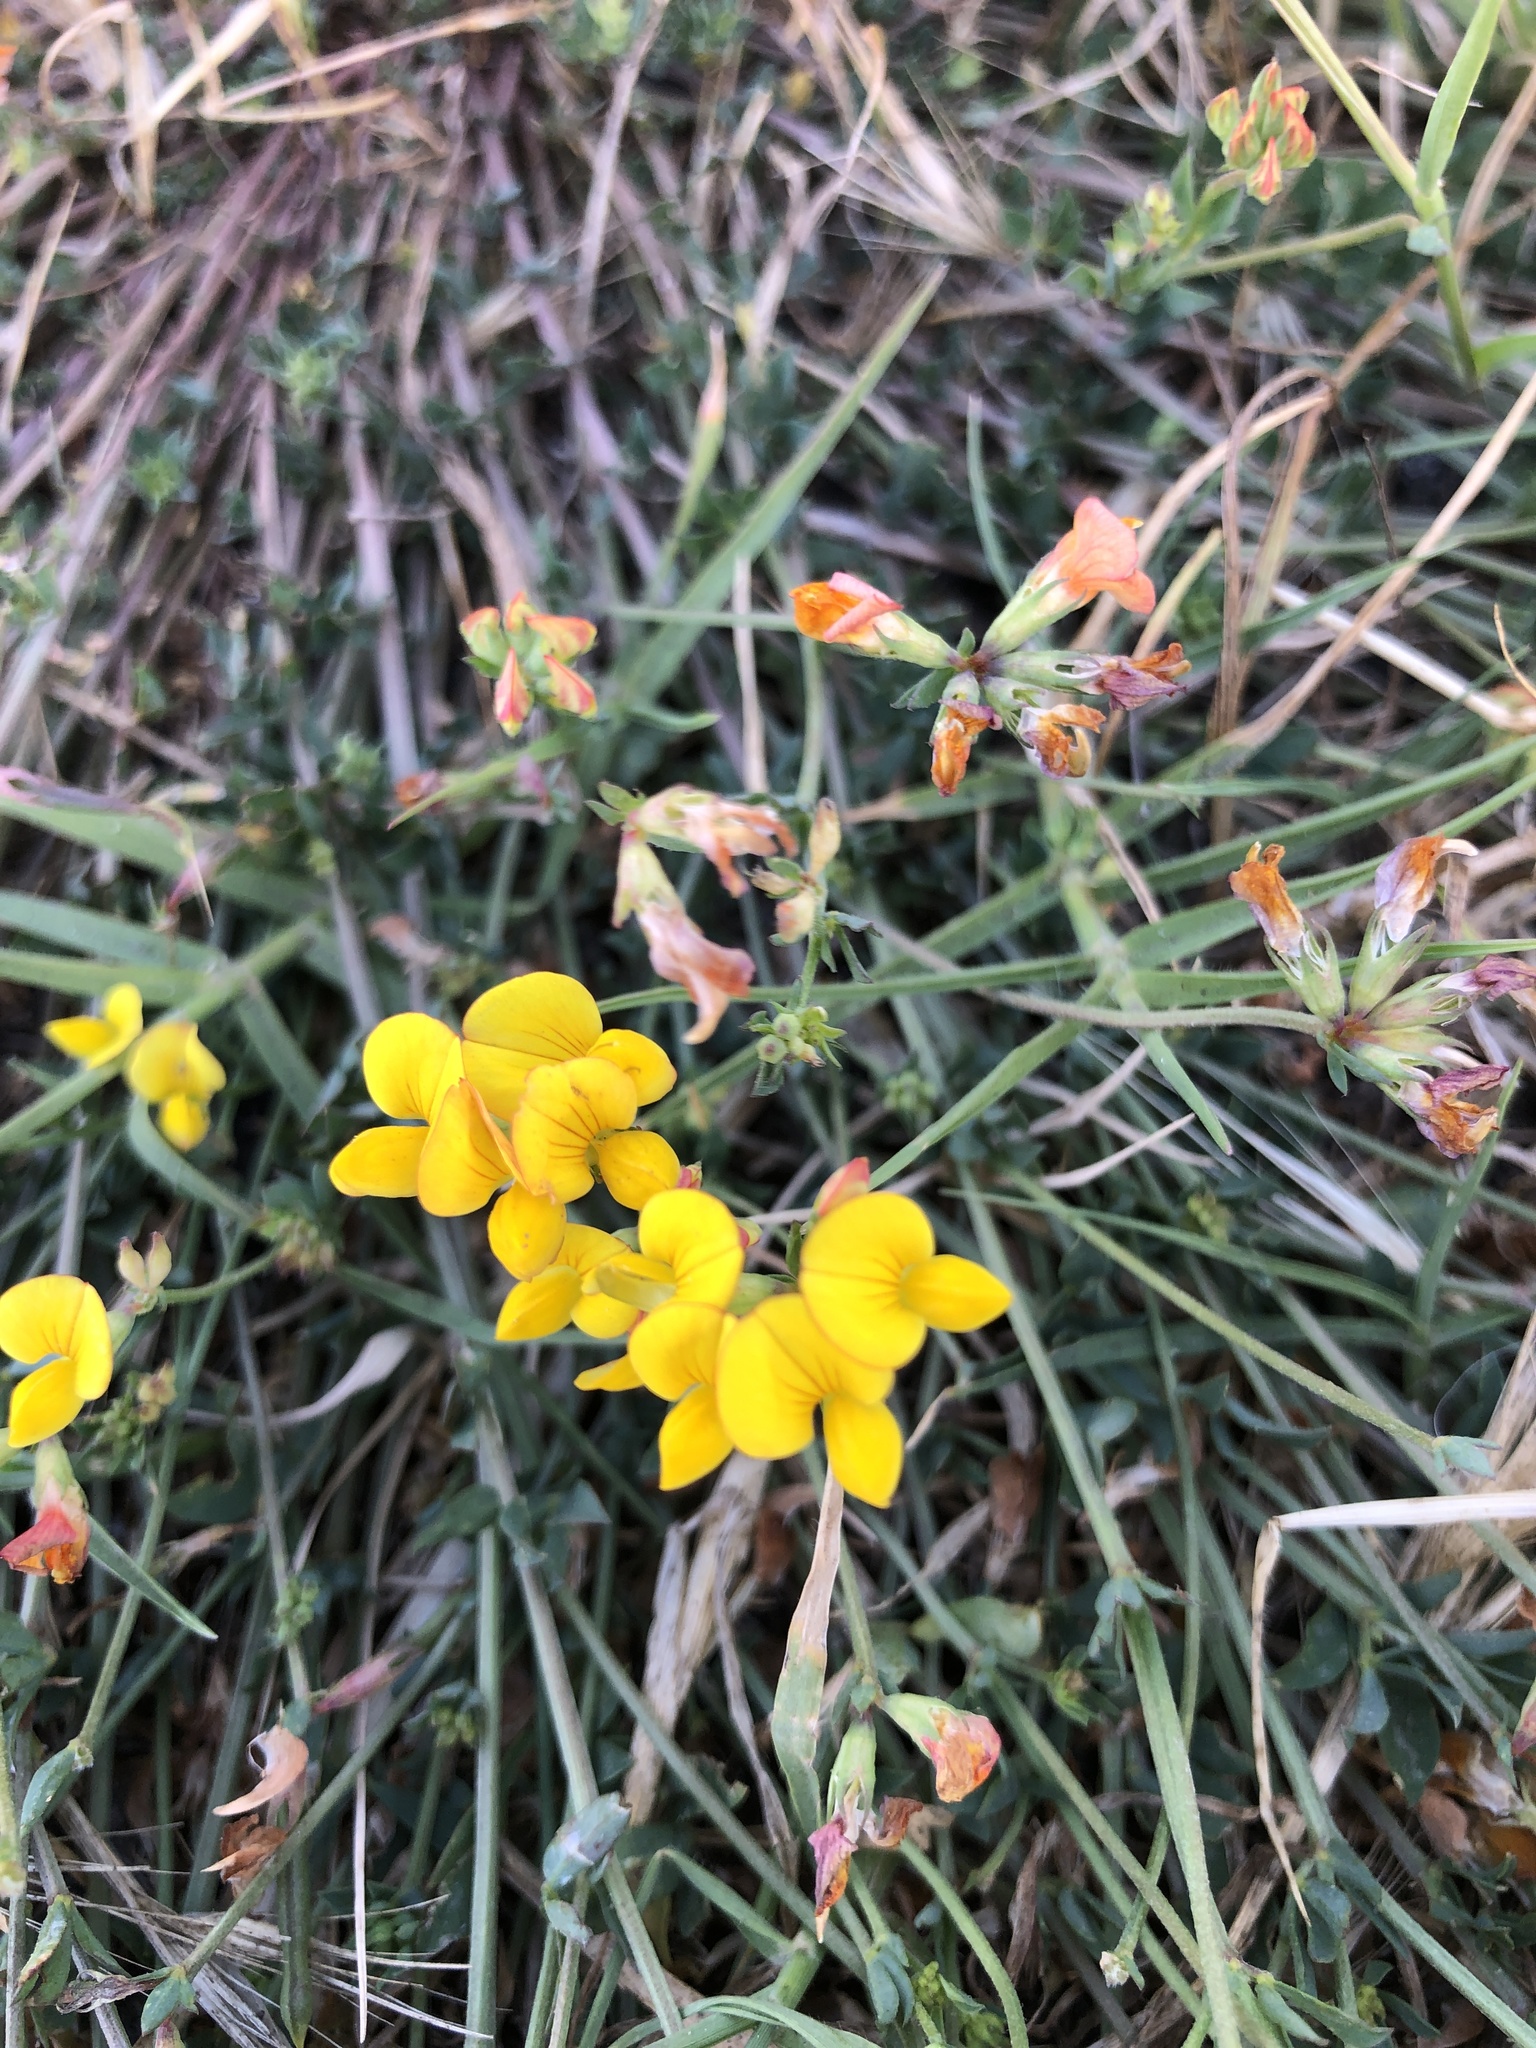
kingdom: Plantae
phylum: Tracheophyta
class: Magnoliopsida
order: Fabales
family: Fabaceae
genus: Lotus
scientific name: Lotus corniculatus
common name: Common bird's-foot-trefoil
